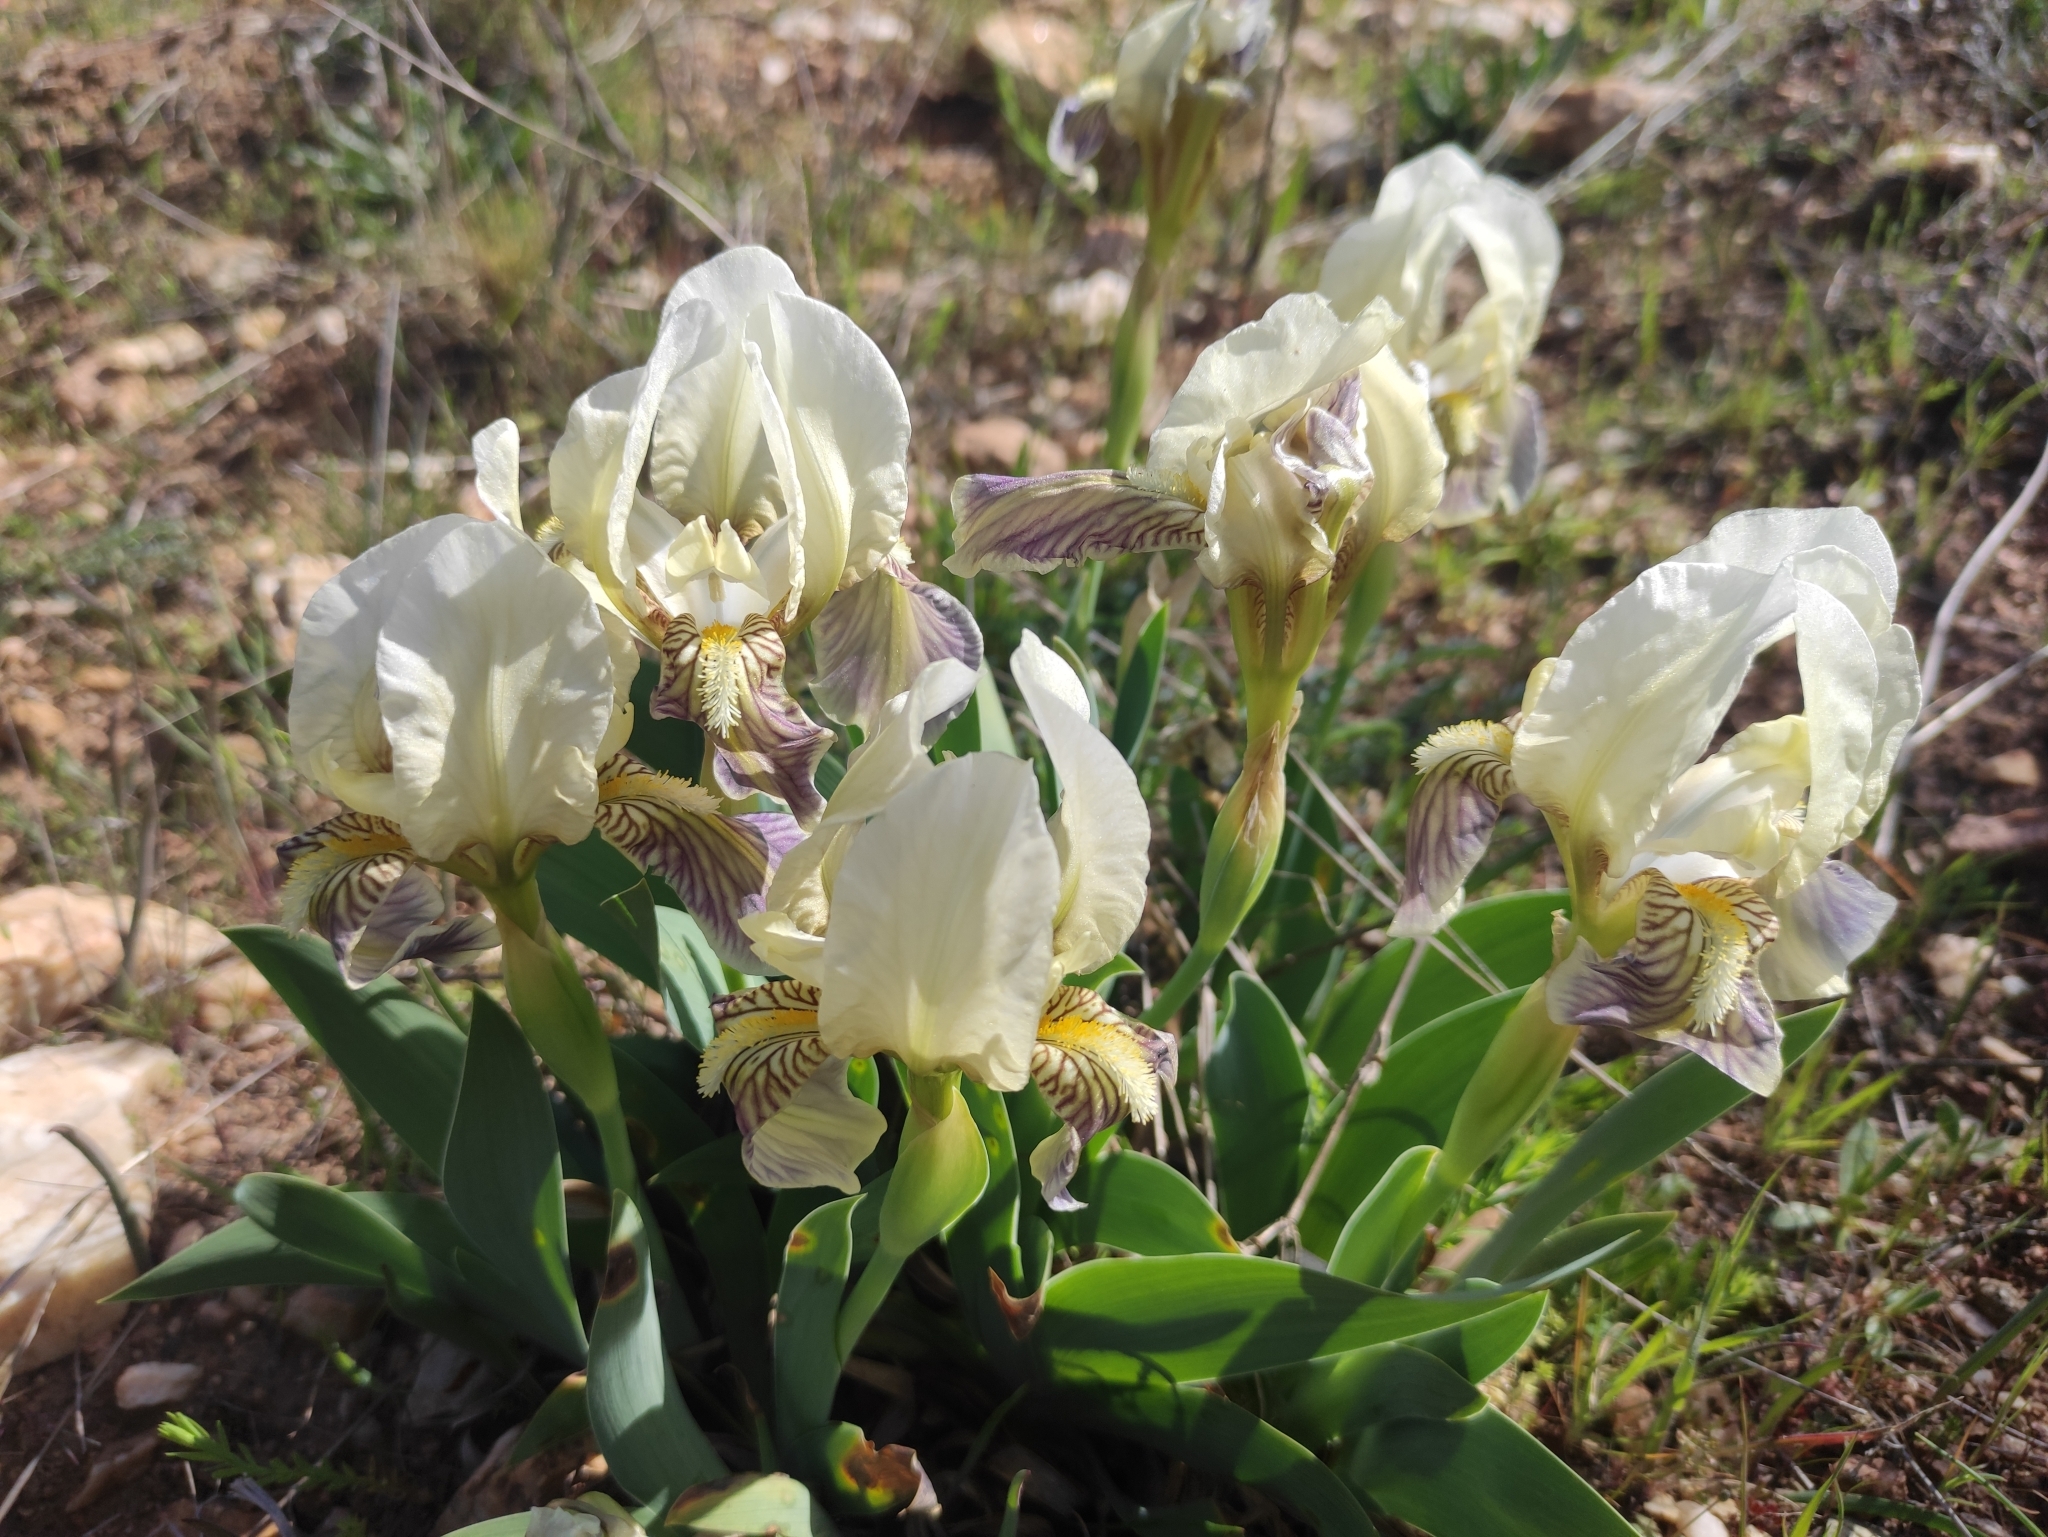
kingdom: Plantae
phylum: Tracheophyta
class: Liliopsida
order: Asparagales
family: Iridaceae
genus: Iris
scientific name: Iris lutescens
